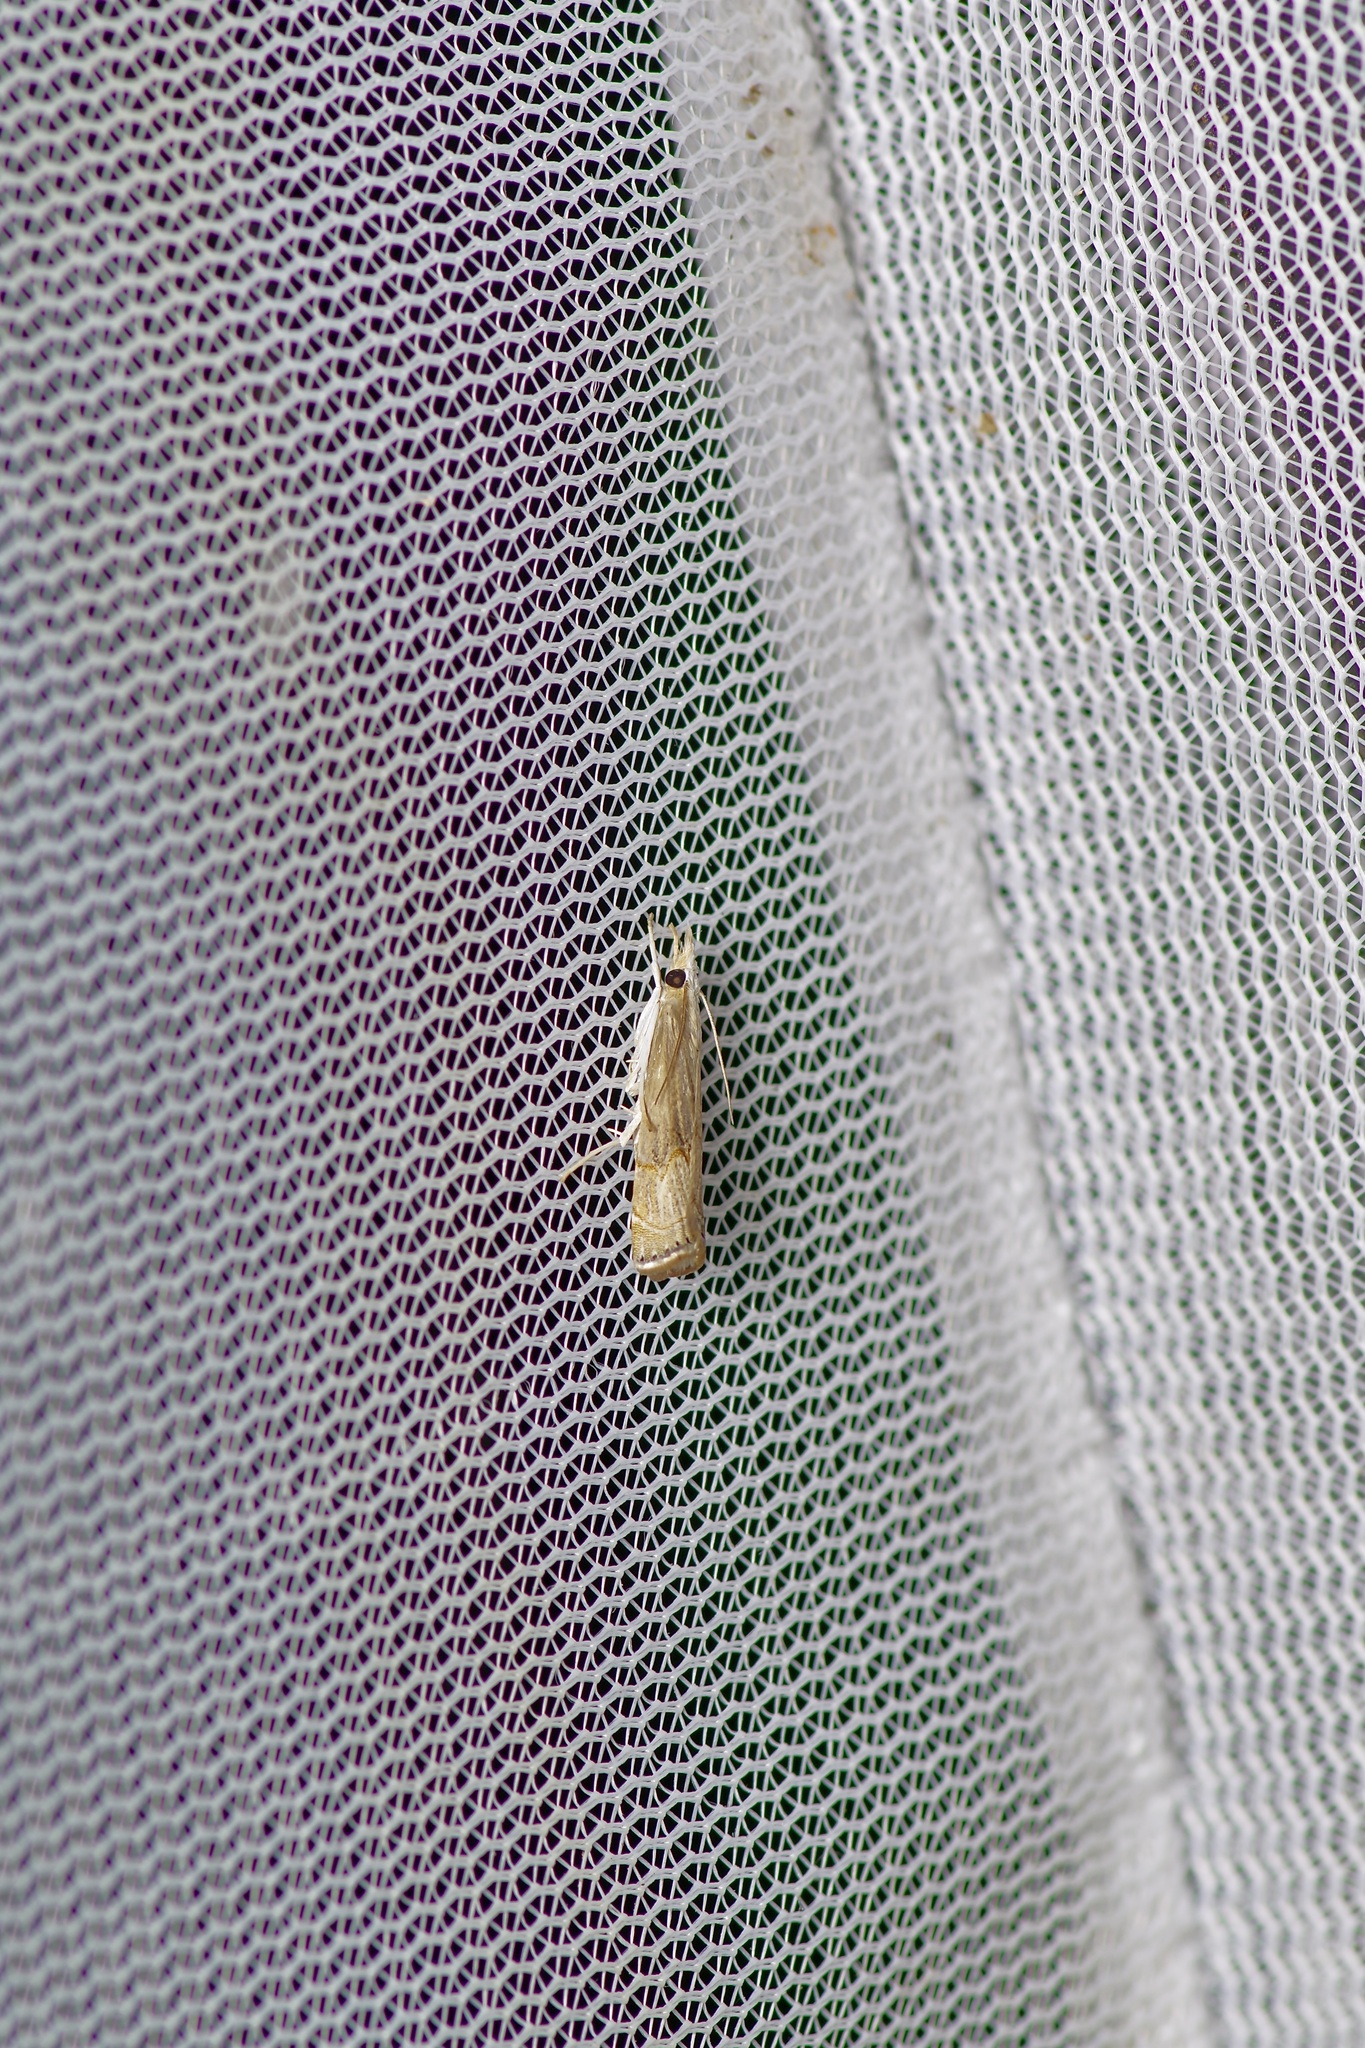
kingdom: Animalia
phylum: Arthropoda
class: Insecta
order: Lepidoptera
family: Crambidae
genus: Parapediasia
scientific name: Parapediasia teterellus
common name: Bluegrass webworm moth
